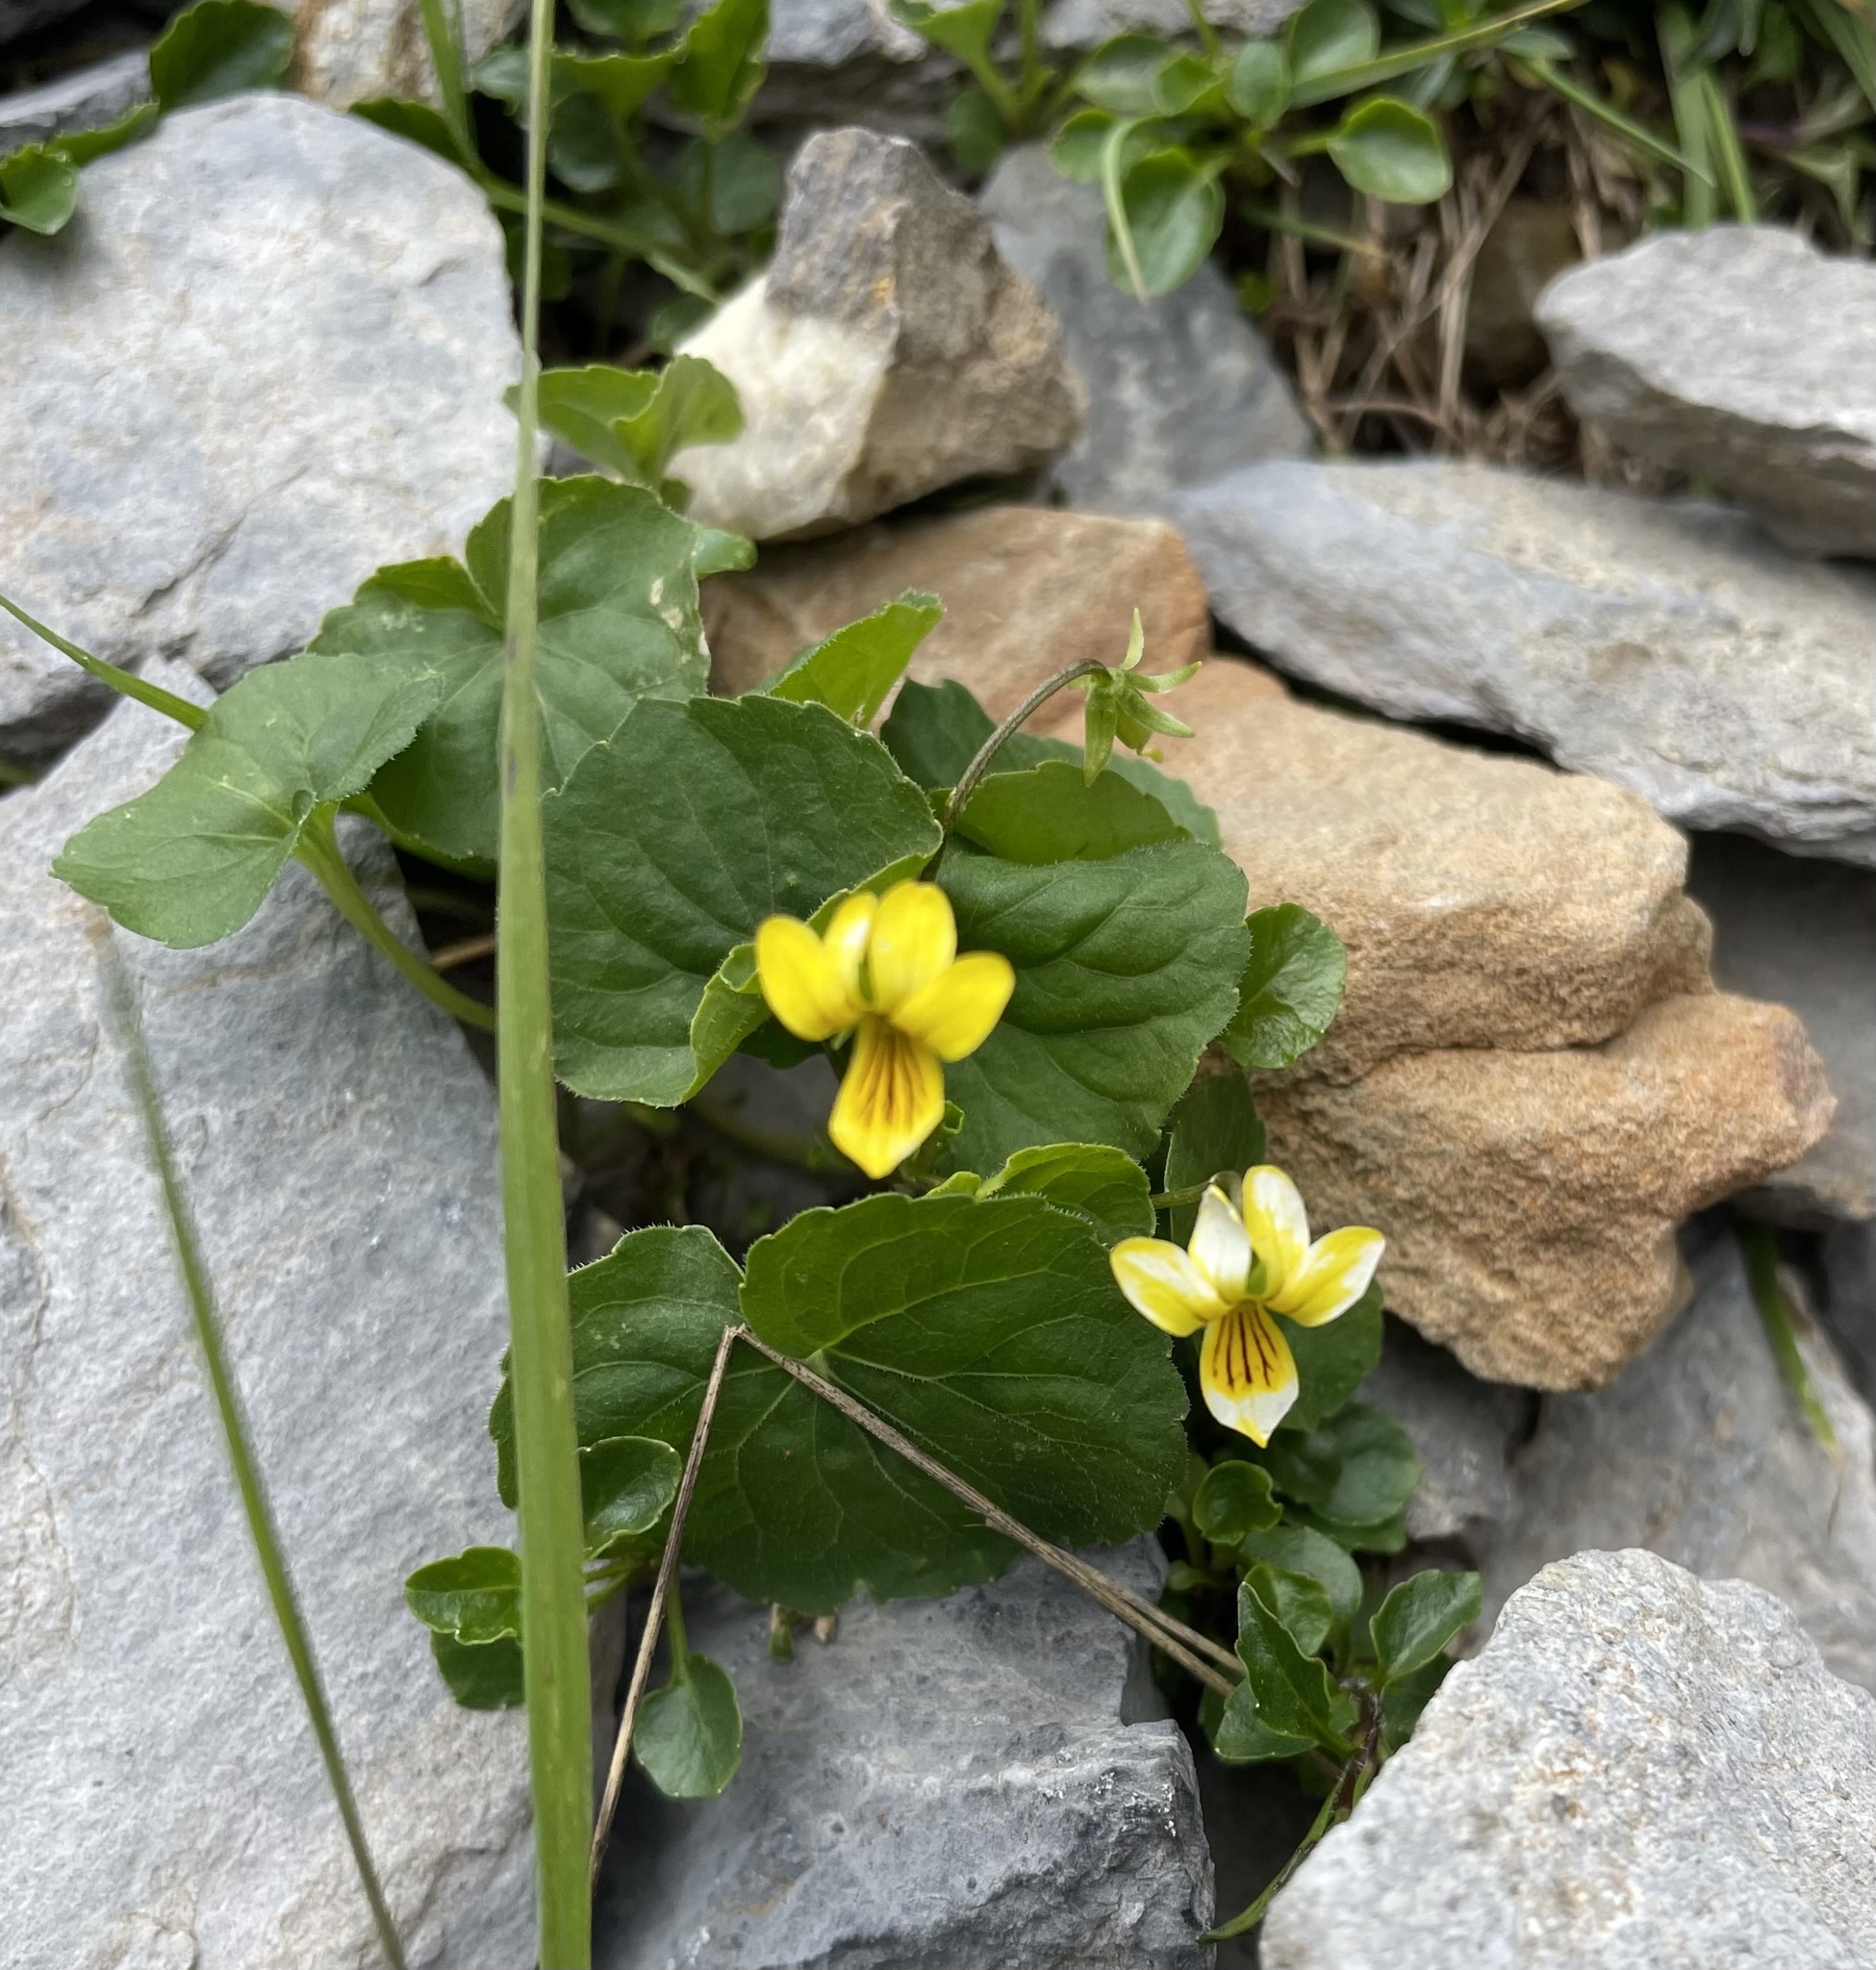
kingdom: Plantae
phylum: Tracheophyta
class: Magnoliopsida
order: Malpighiales
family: Violaceae
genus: Viola
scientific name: Viola biflora
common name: Alpine yellow violet
